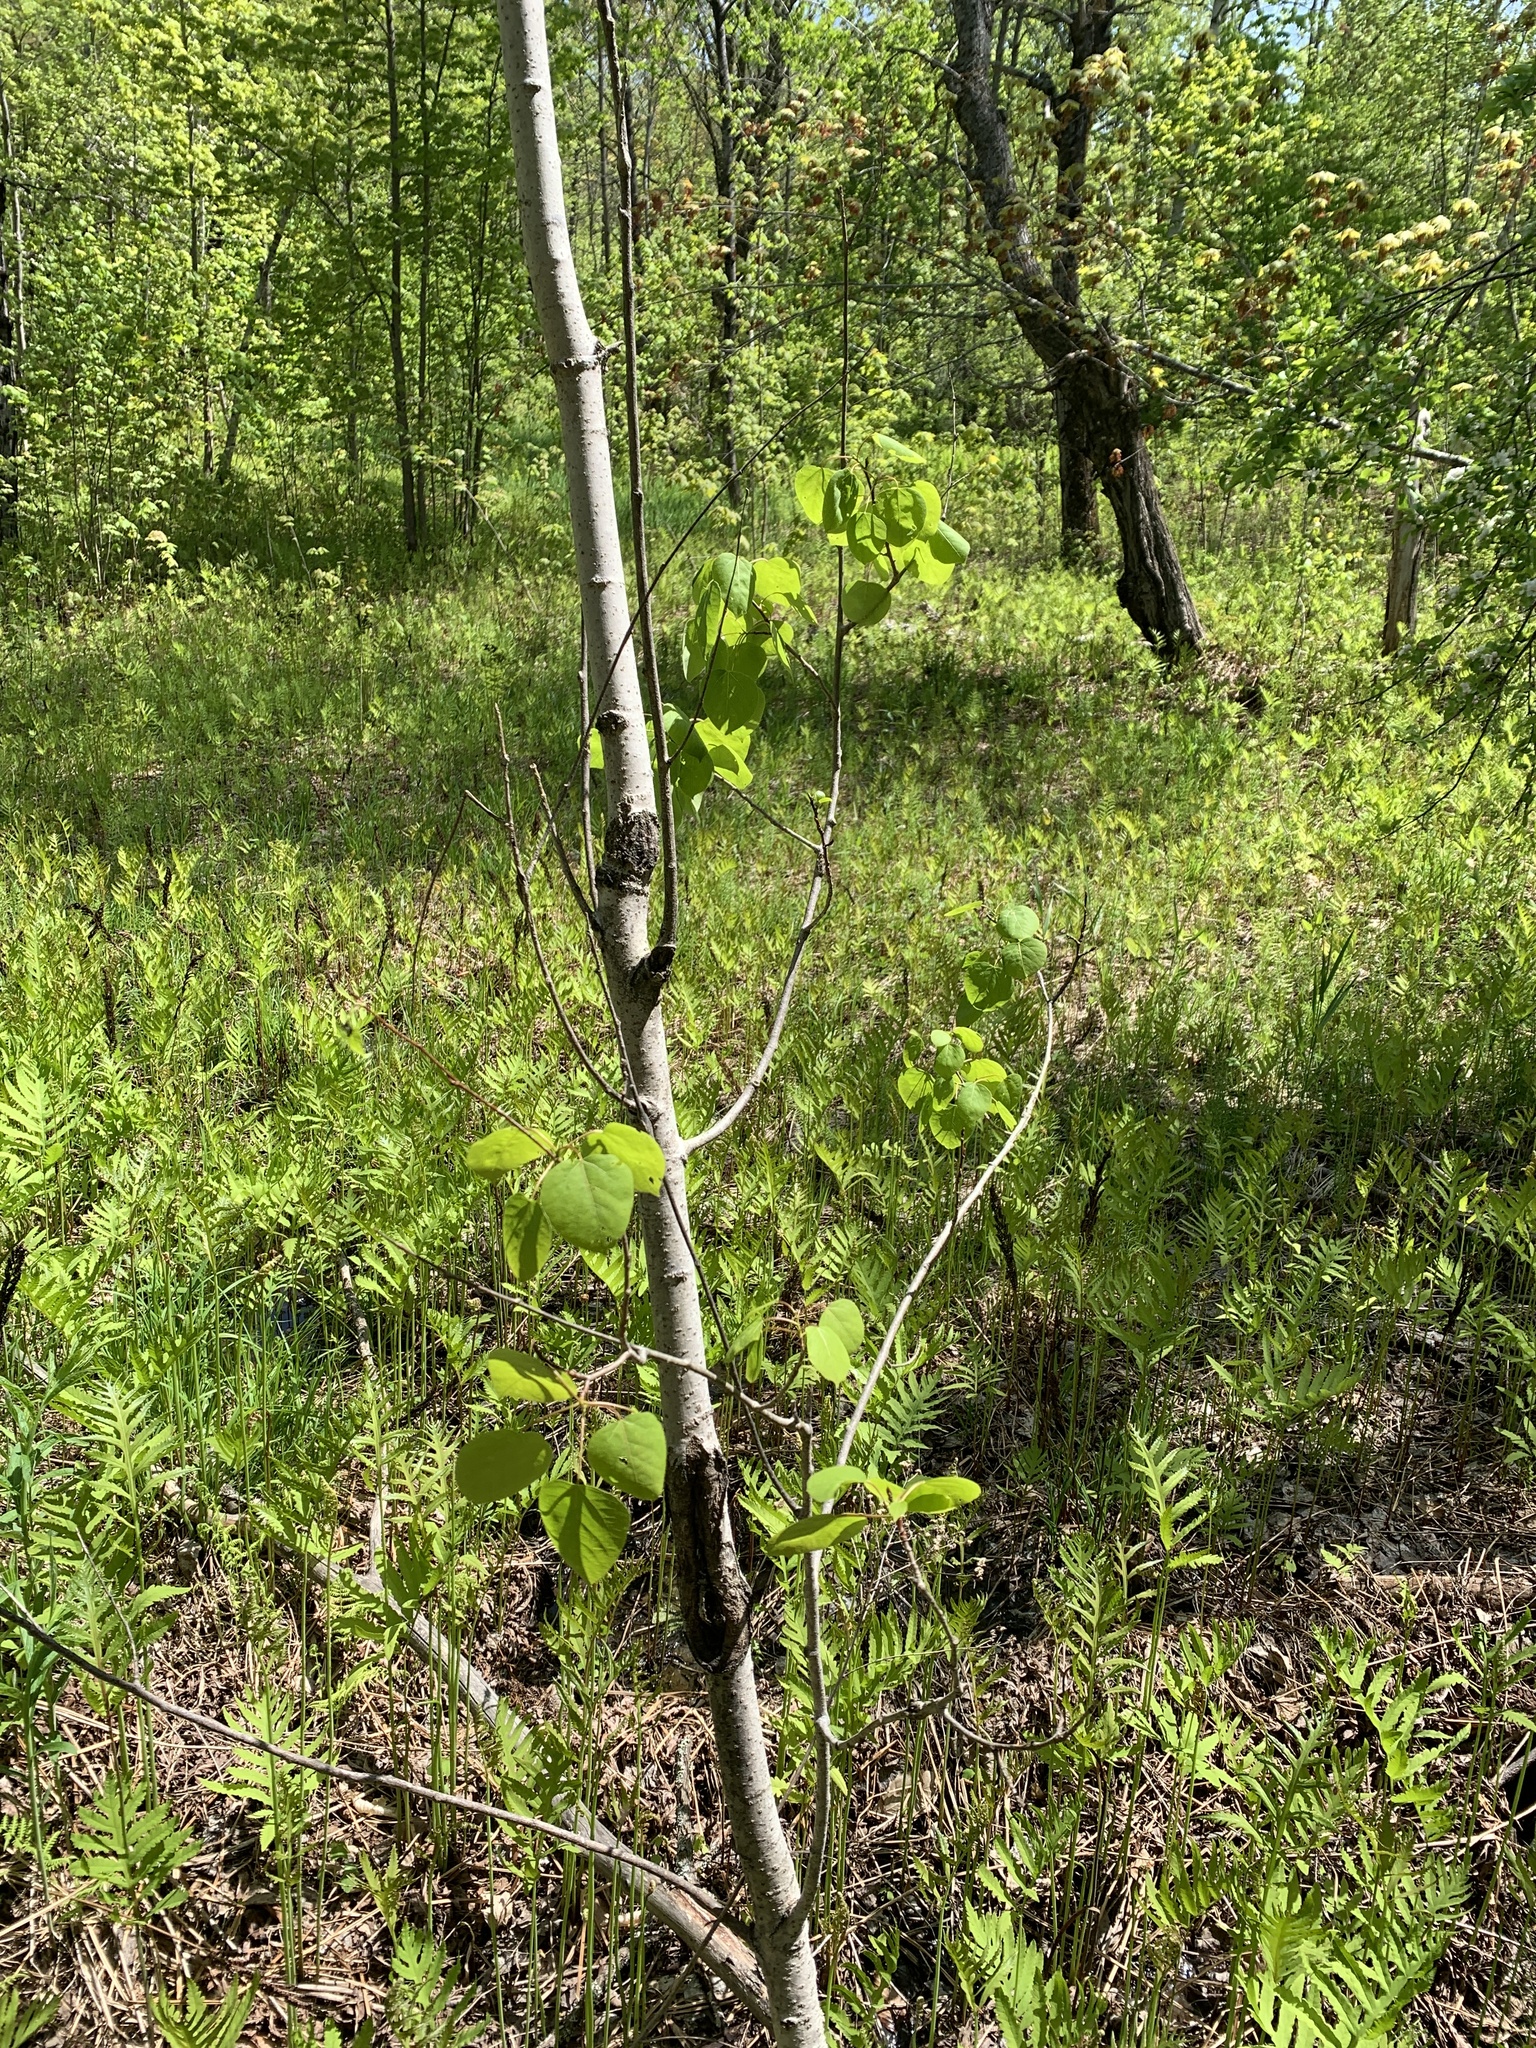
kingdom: Plantae
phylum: Tracheophyta
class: Magnoliopsida
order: Malpighiales
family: Salicaceae
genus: Populus
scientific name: Populus tremuloides
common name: Quaking aspen
